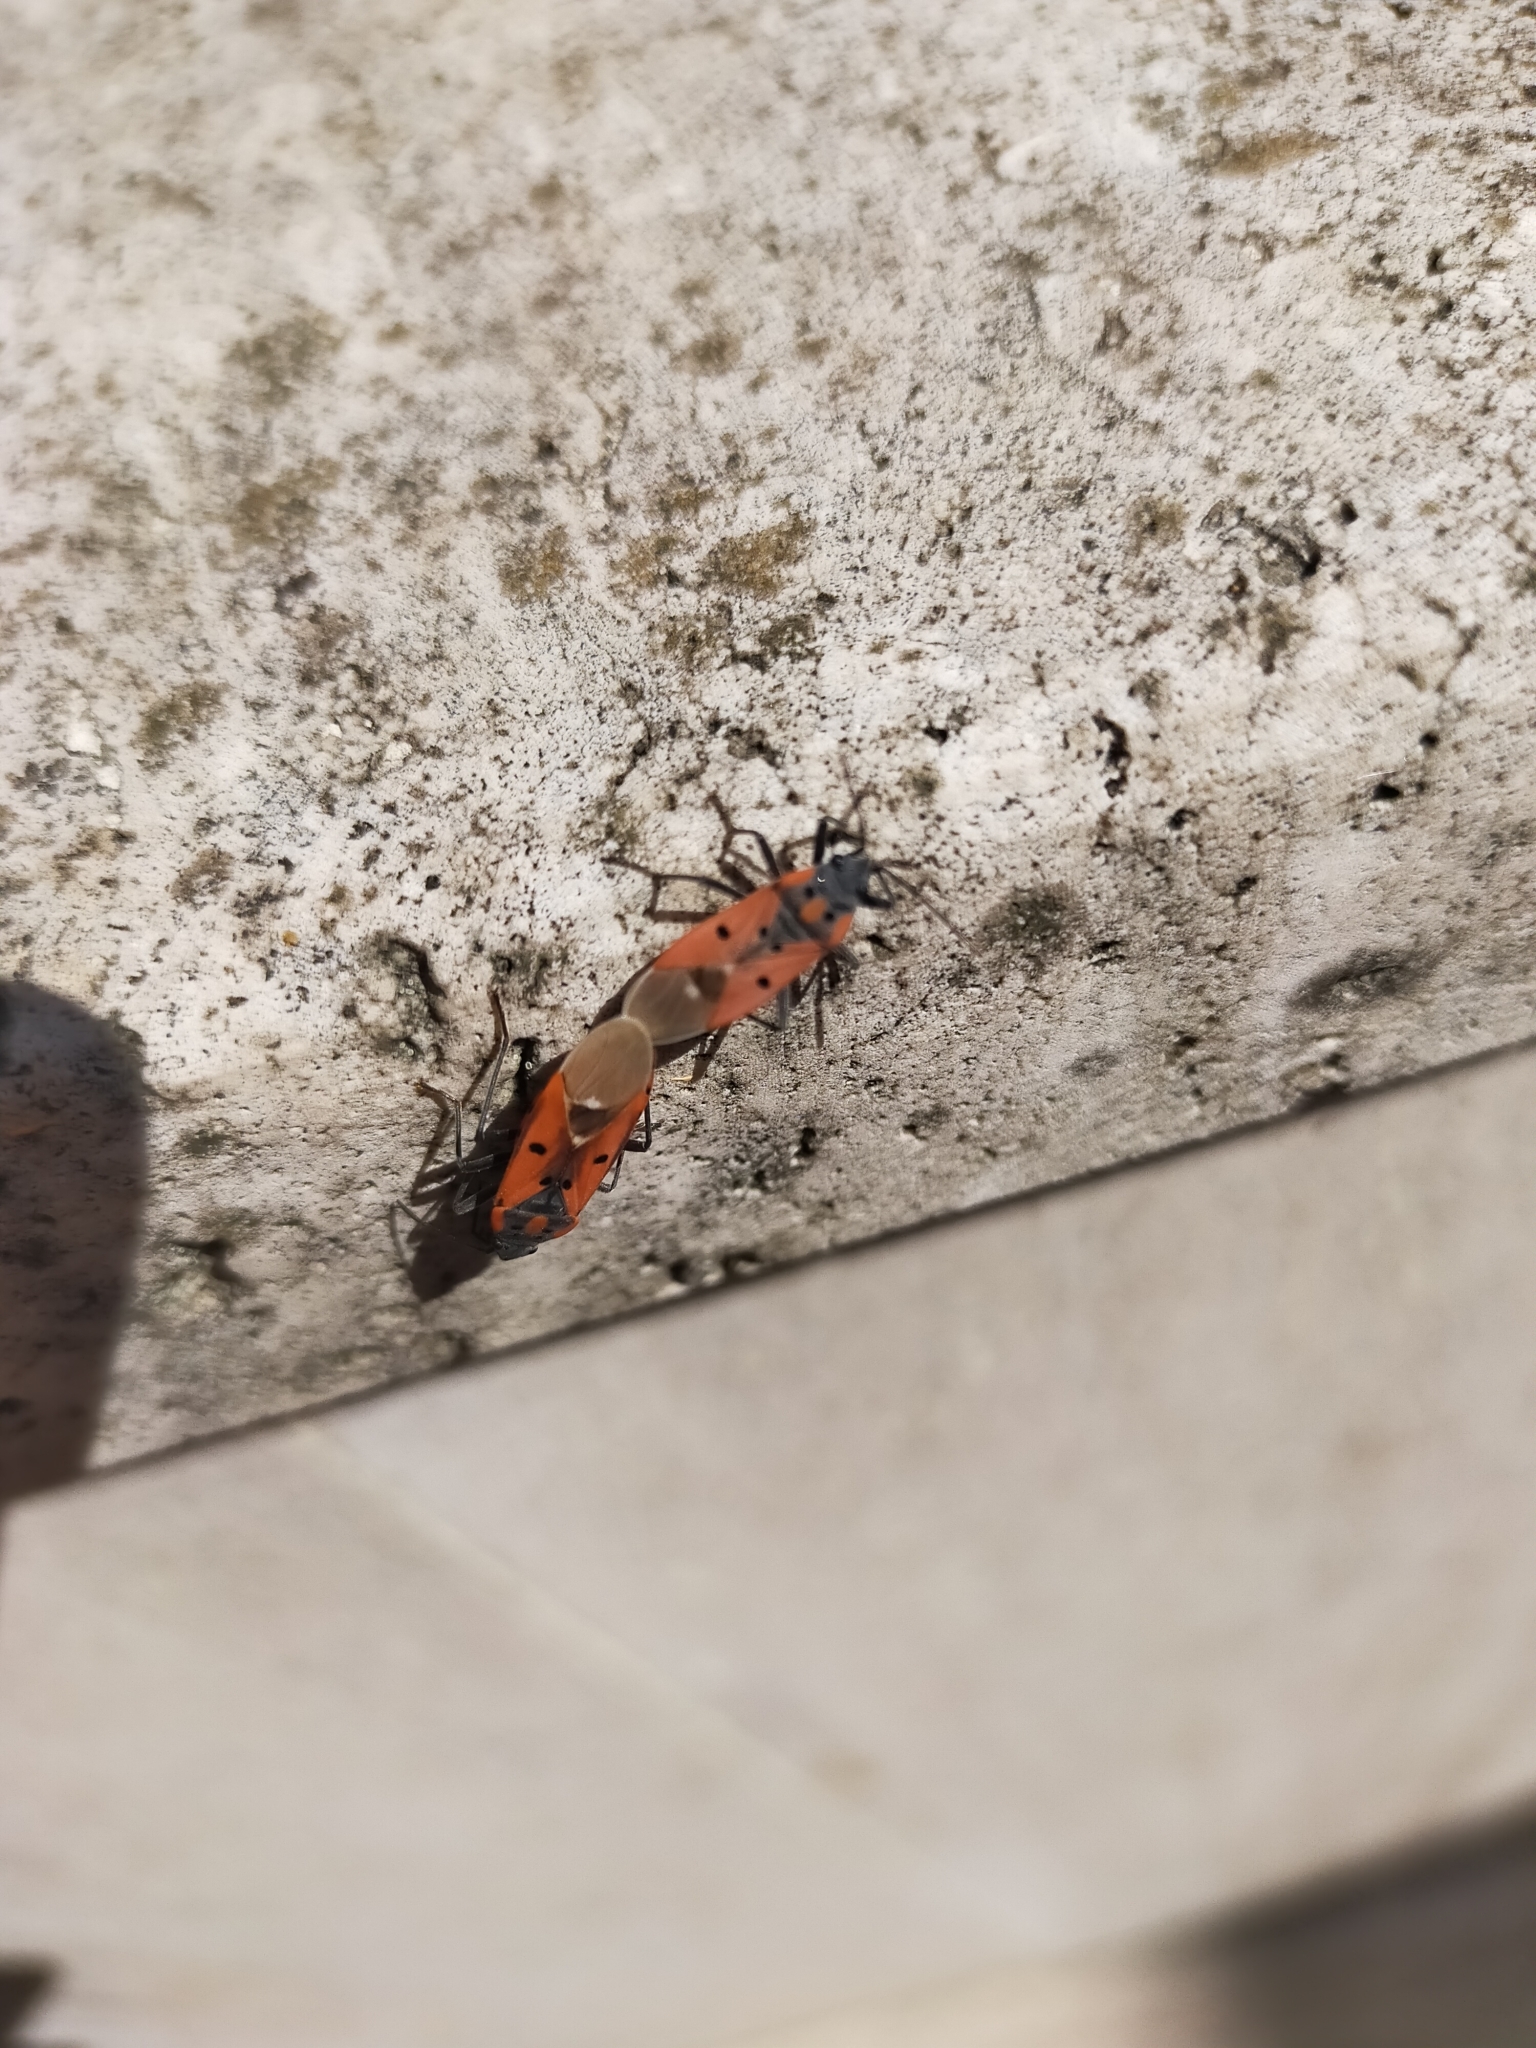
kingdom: Animalia
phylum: Arthropoda
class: Insecta
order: Hemiptera
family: Lygaeidae
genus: Lygaeus
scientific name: Lygaeus creticus
